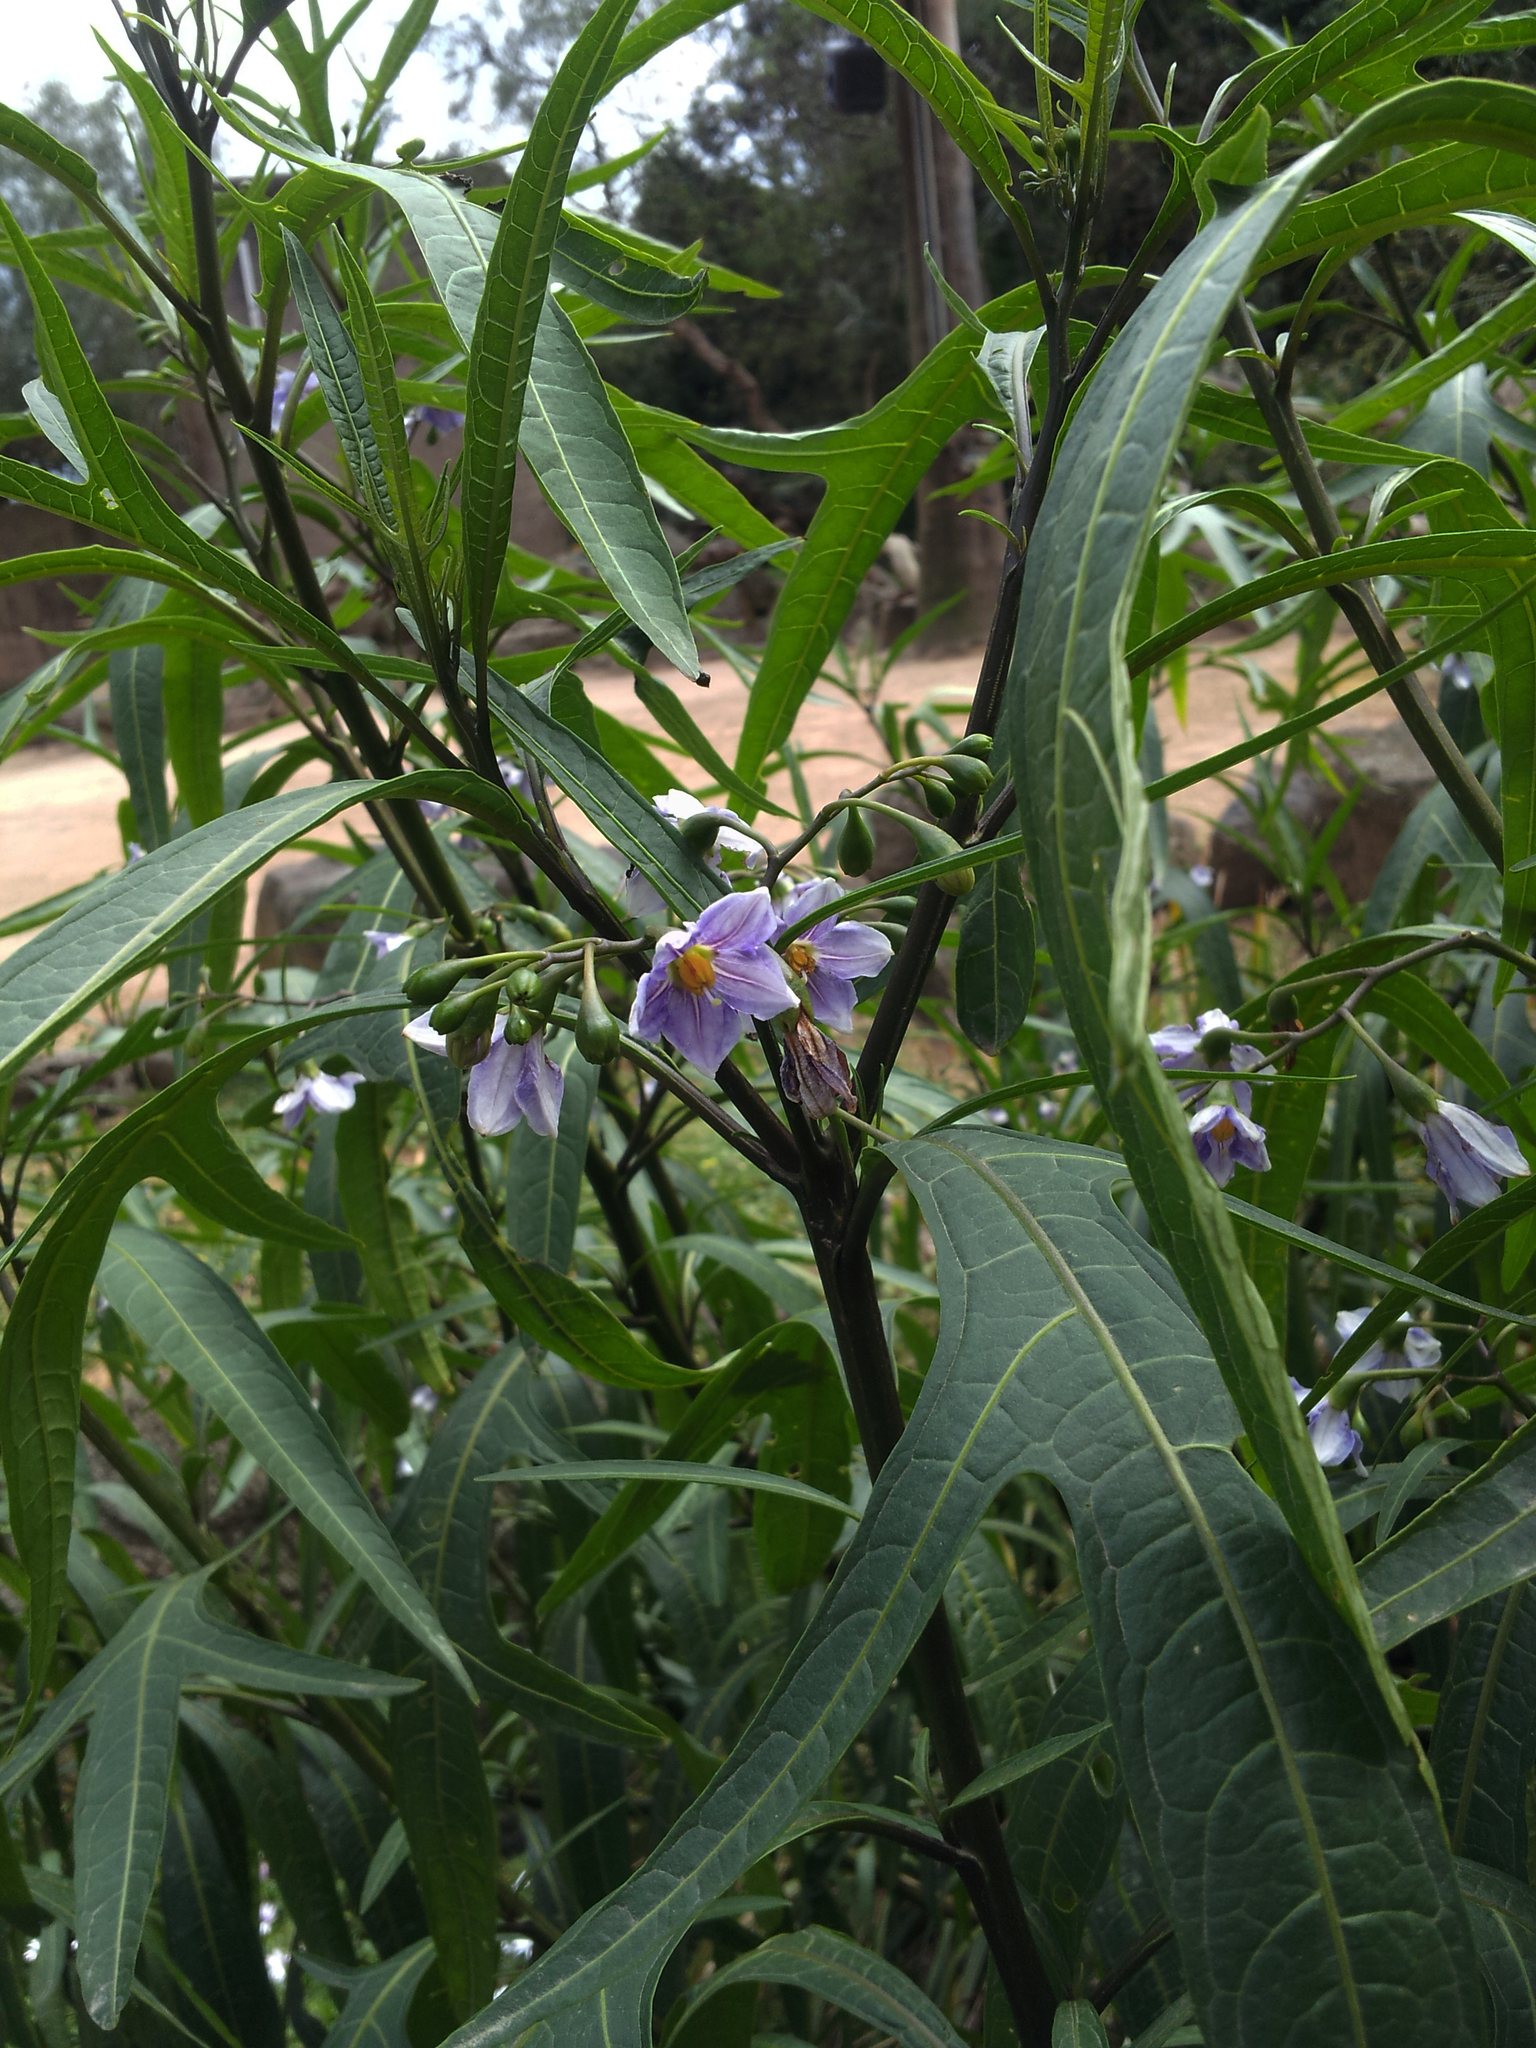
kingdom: Plantae
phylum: Tracheophyta
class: Magnoliopsida
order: Solanales
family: Solanaceae
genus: Solanum
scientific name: Solanum aviculare
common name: New zealand nightshade
